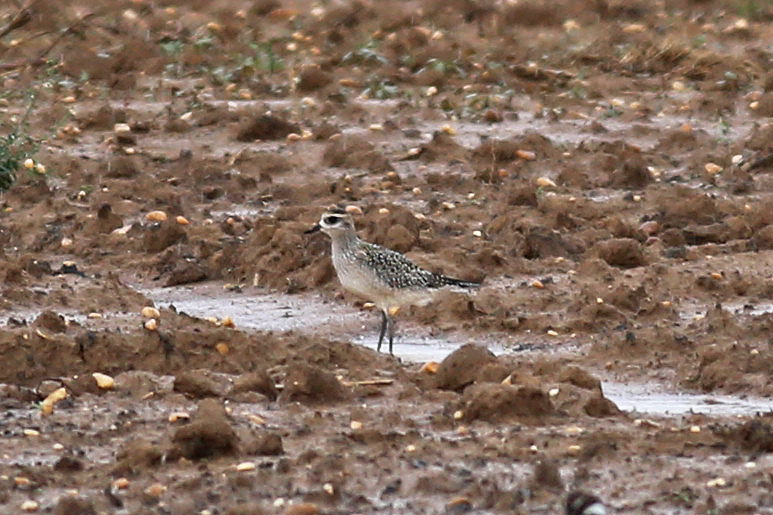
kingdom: Animalia
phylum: Chordata
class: Aves
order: Charadriiformes
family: Charadriidae
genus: Pluvialis
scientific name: Pluvialis dominica
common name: American golden plover
